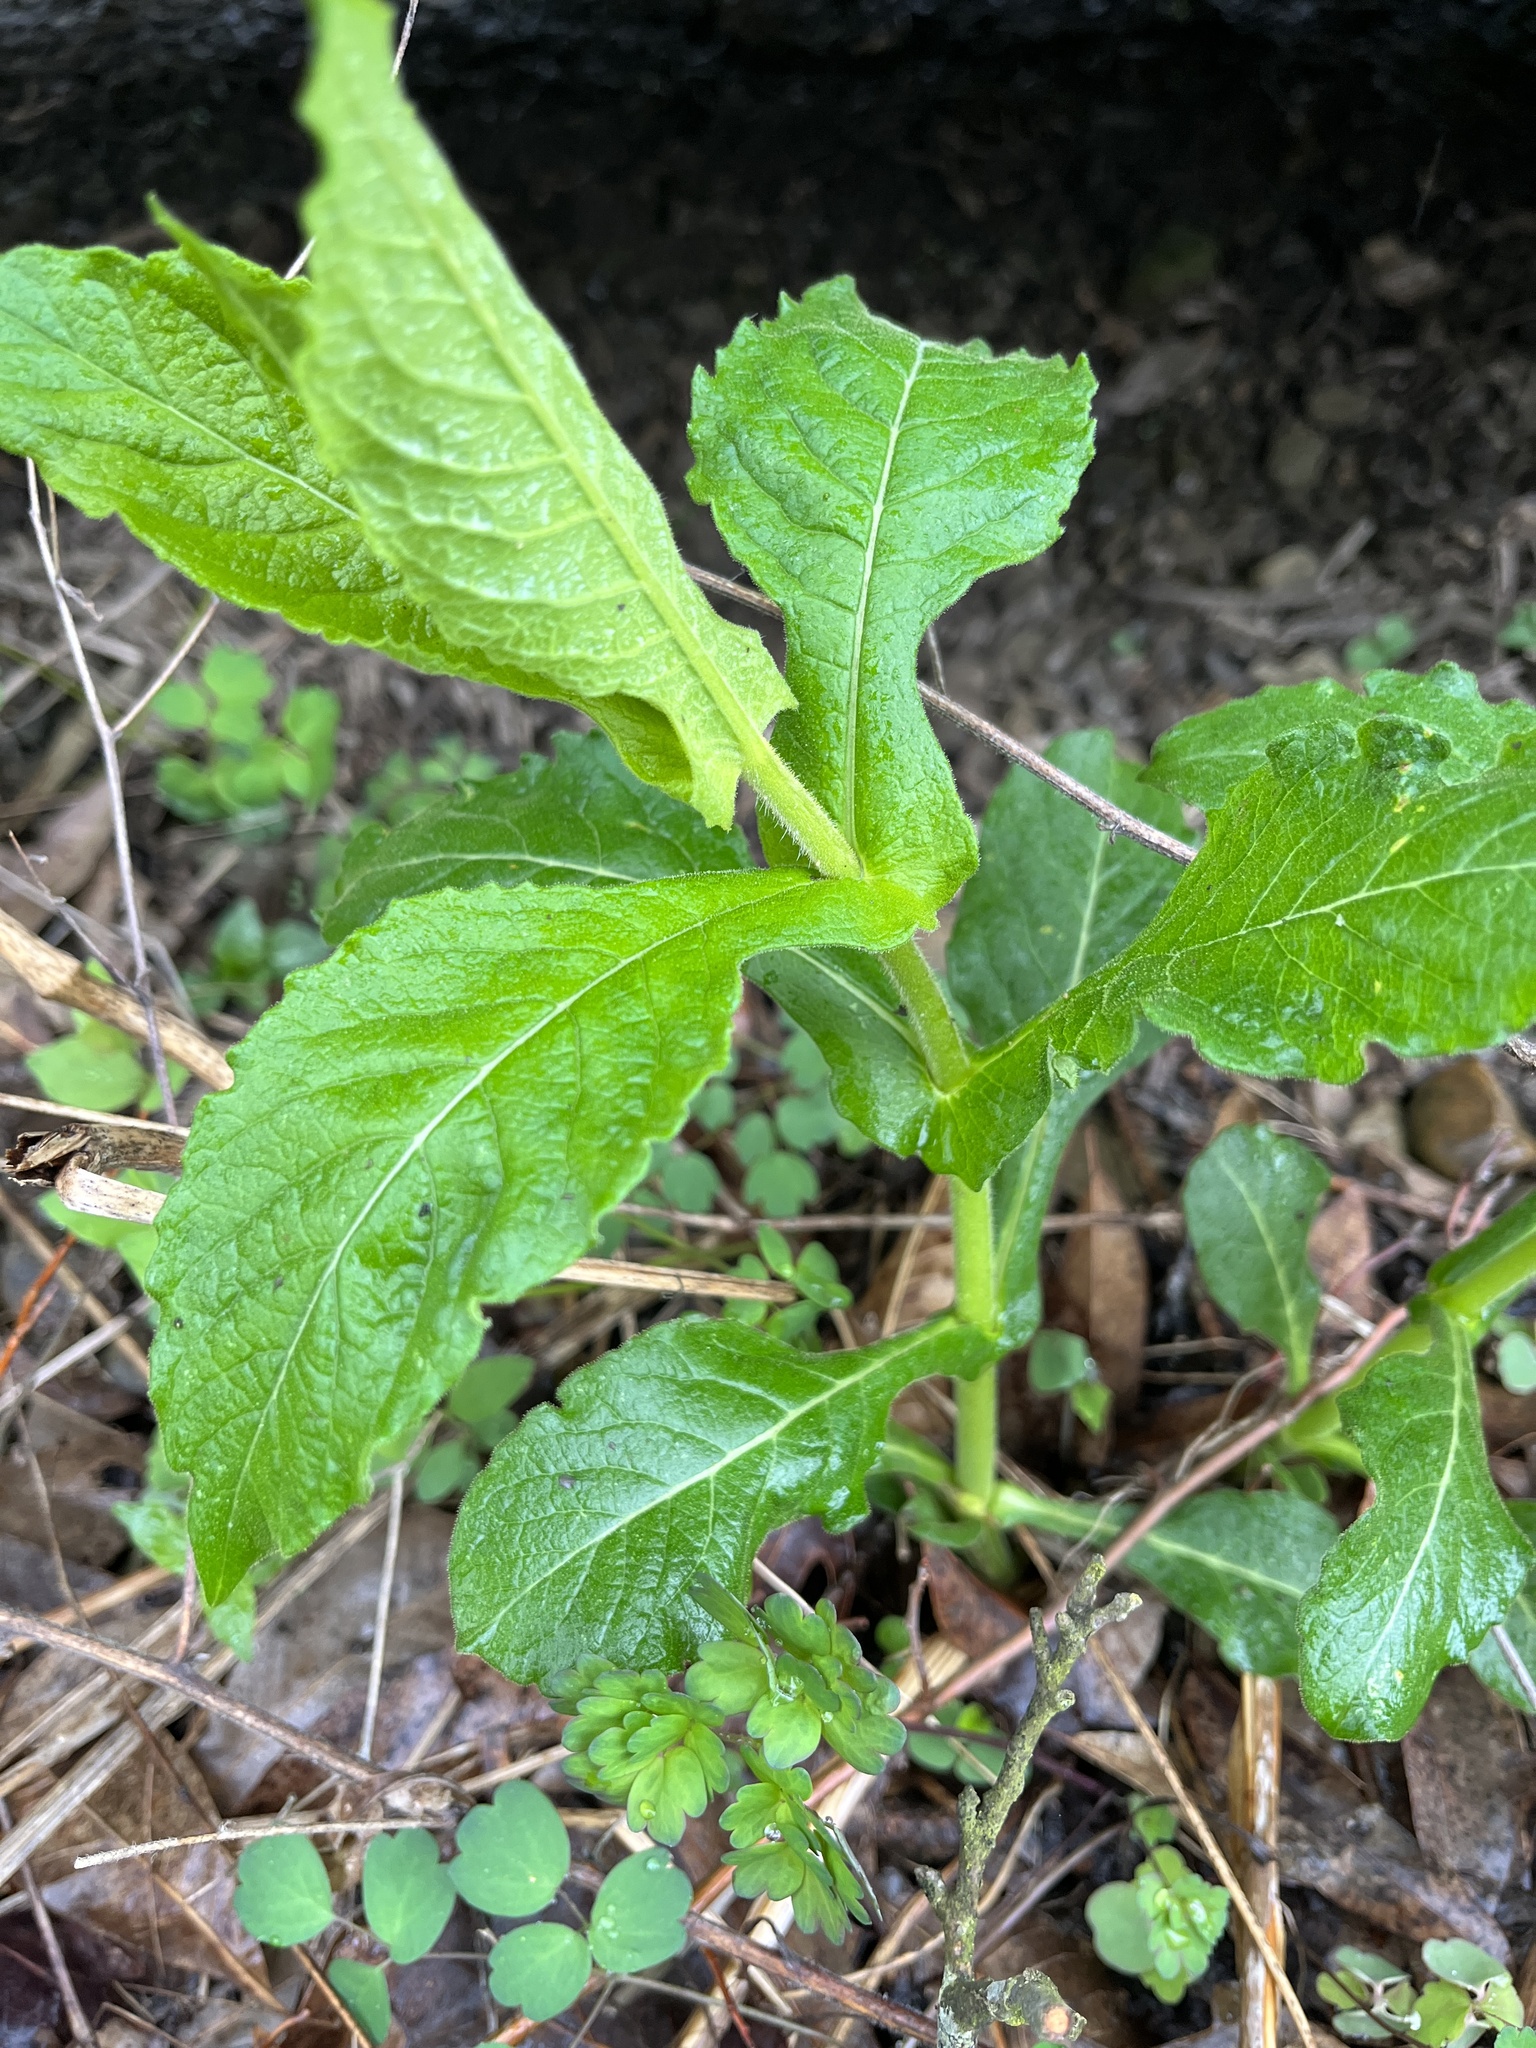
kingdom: Plantae
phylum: Tracheophyta
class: Magnoliopsida
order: Dipsacales
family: Caprifoliaceae
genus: Triosteum
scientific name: Triosteum perfoliatum
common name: Common horse-gentian
